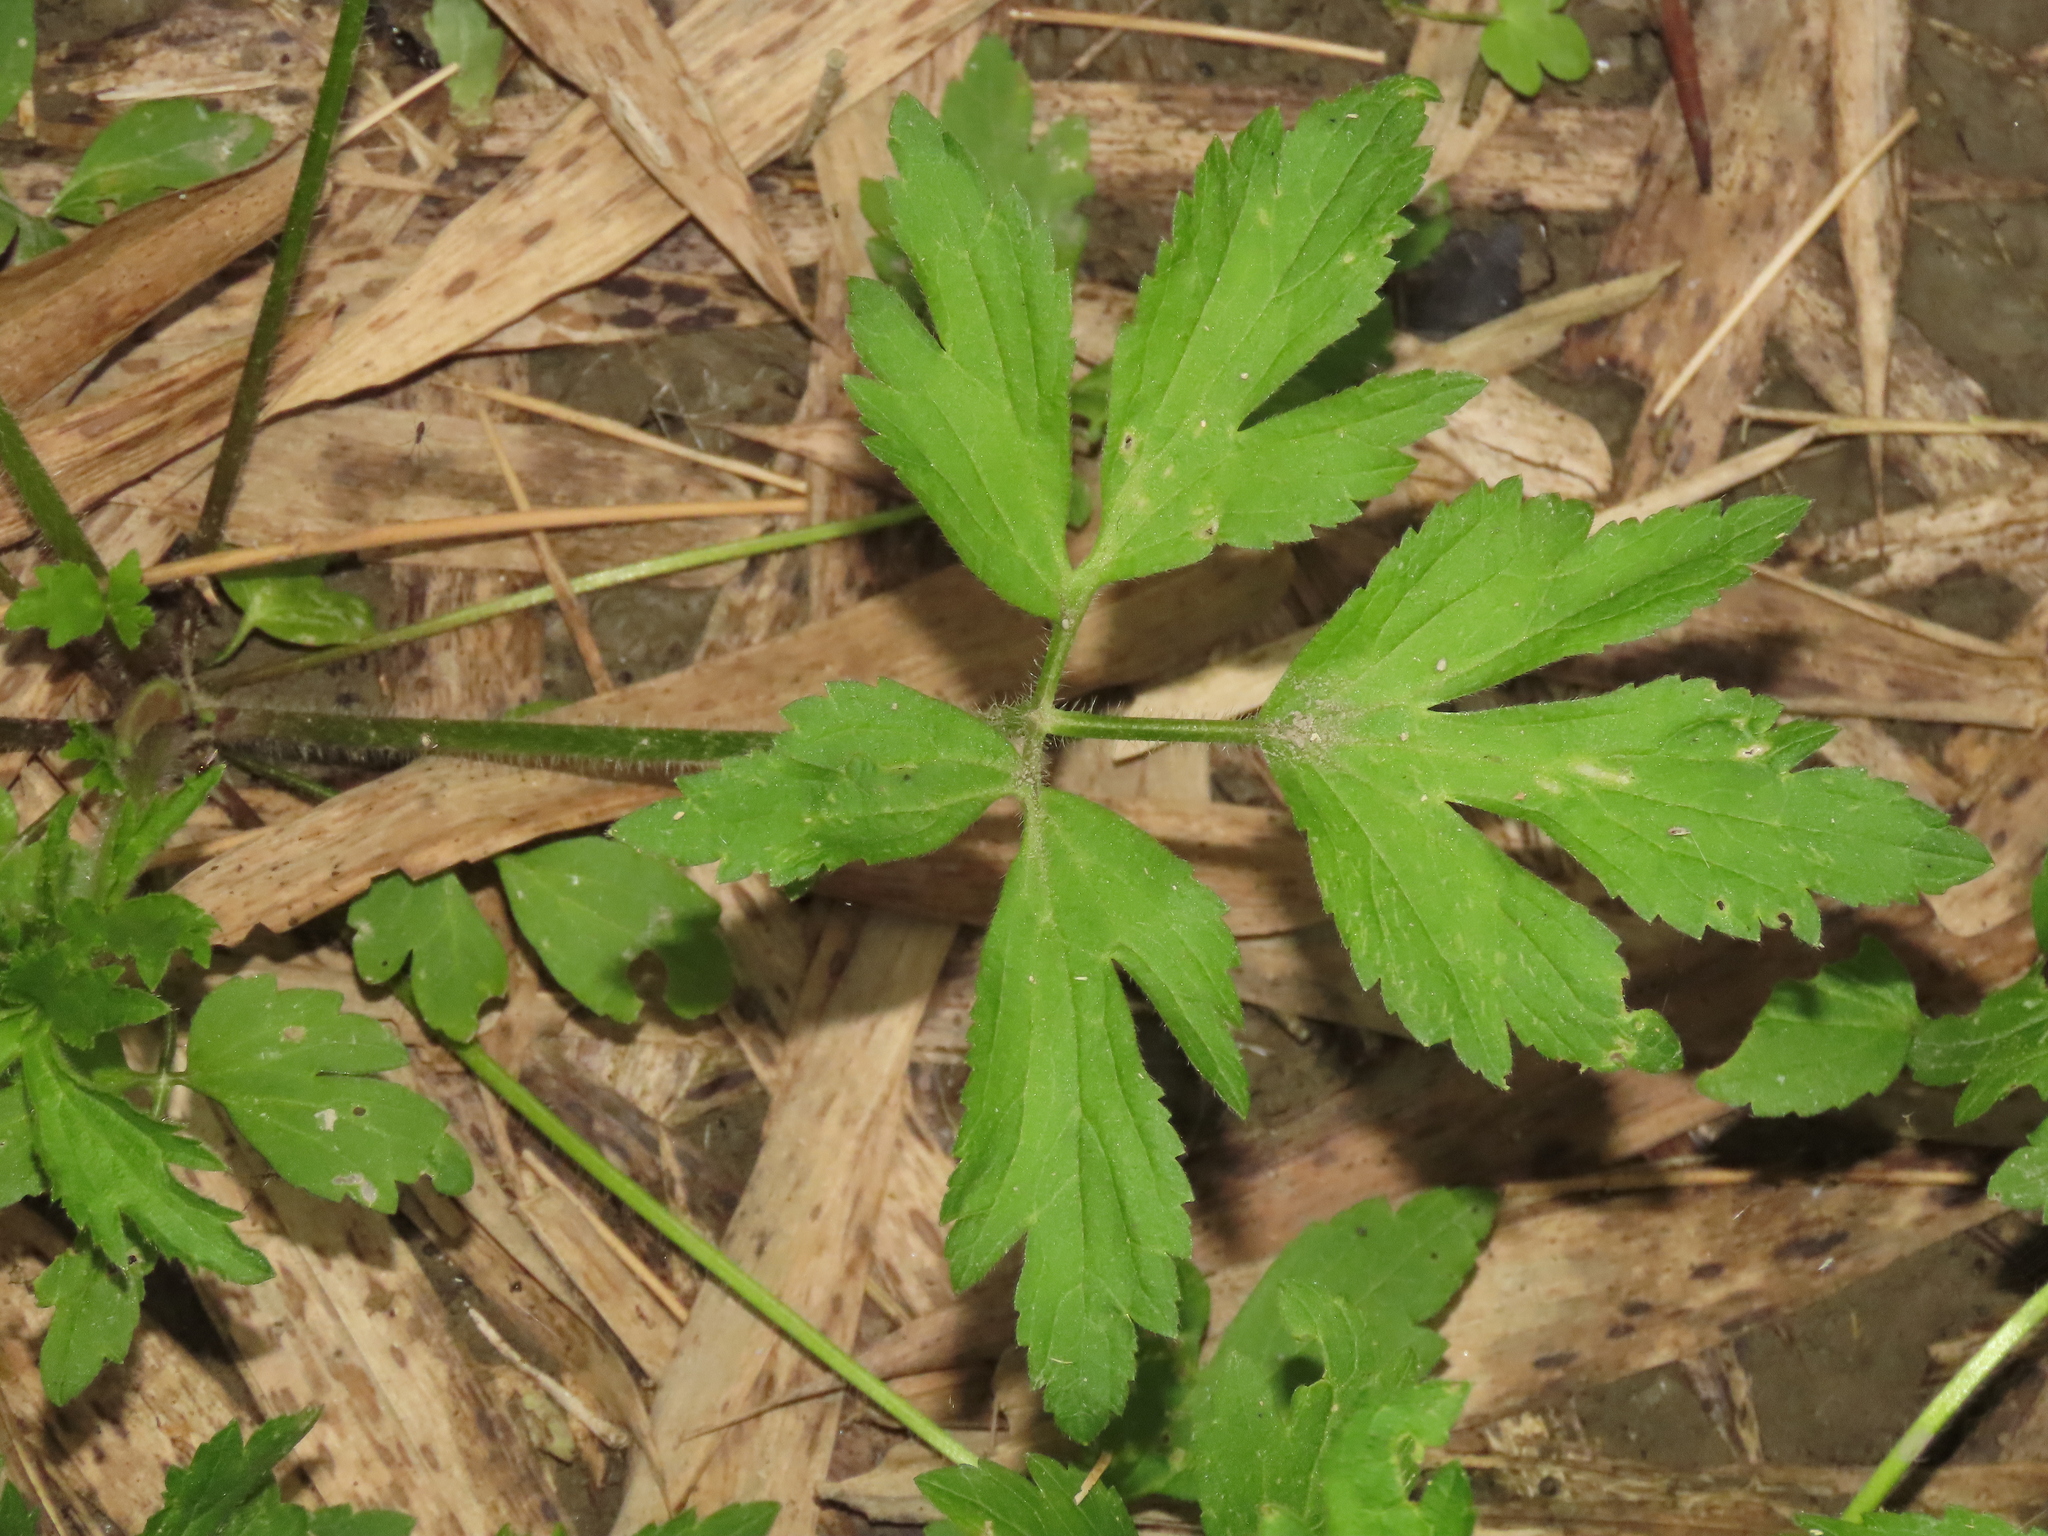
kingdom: Plantae
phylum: Tracheophyta
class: Magnoliopsida
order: Ranunculales
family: Ranunculaceae
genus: Ranunculus
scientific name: Ranunculus cantoniensis
